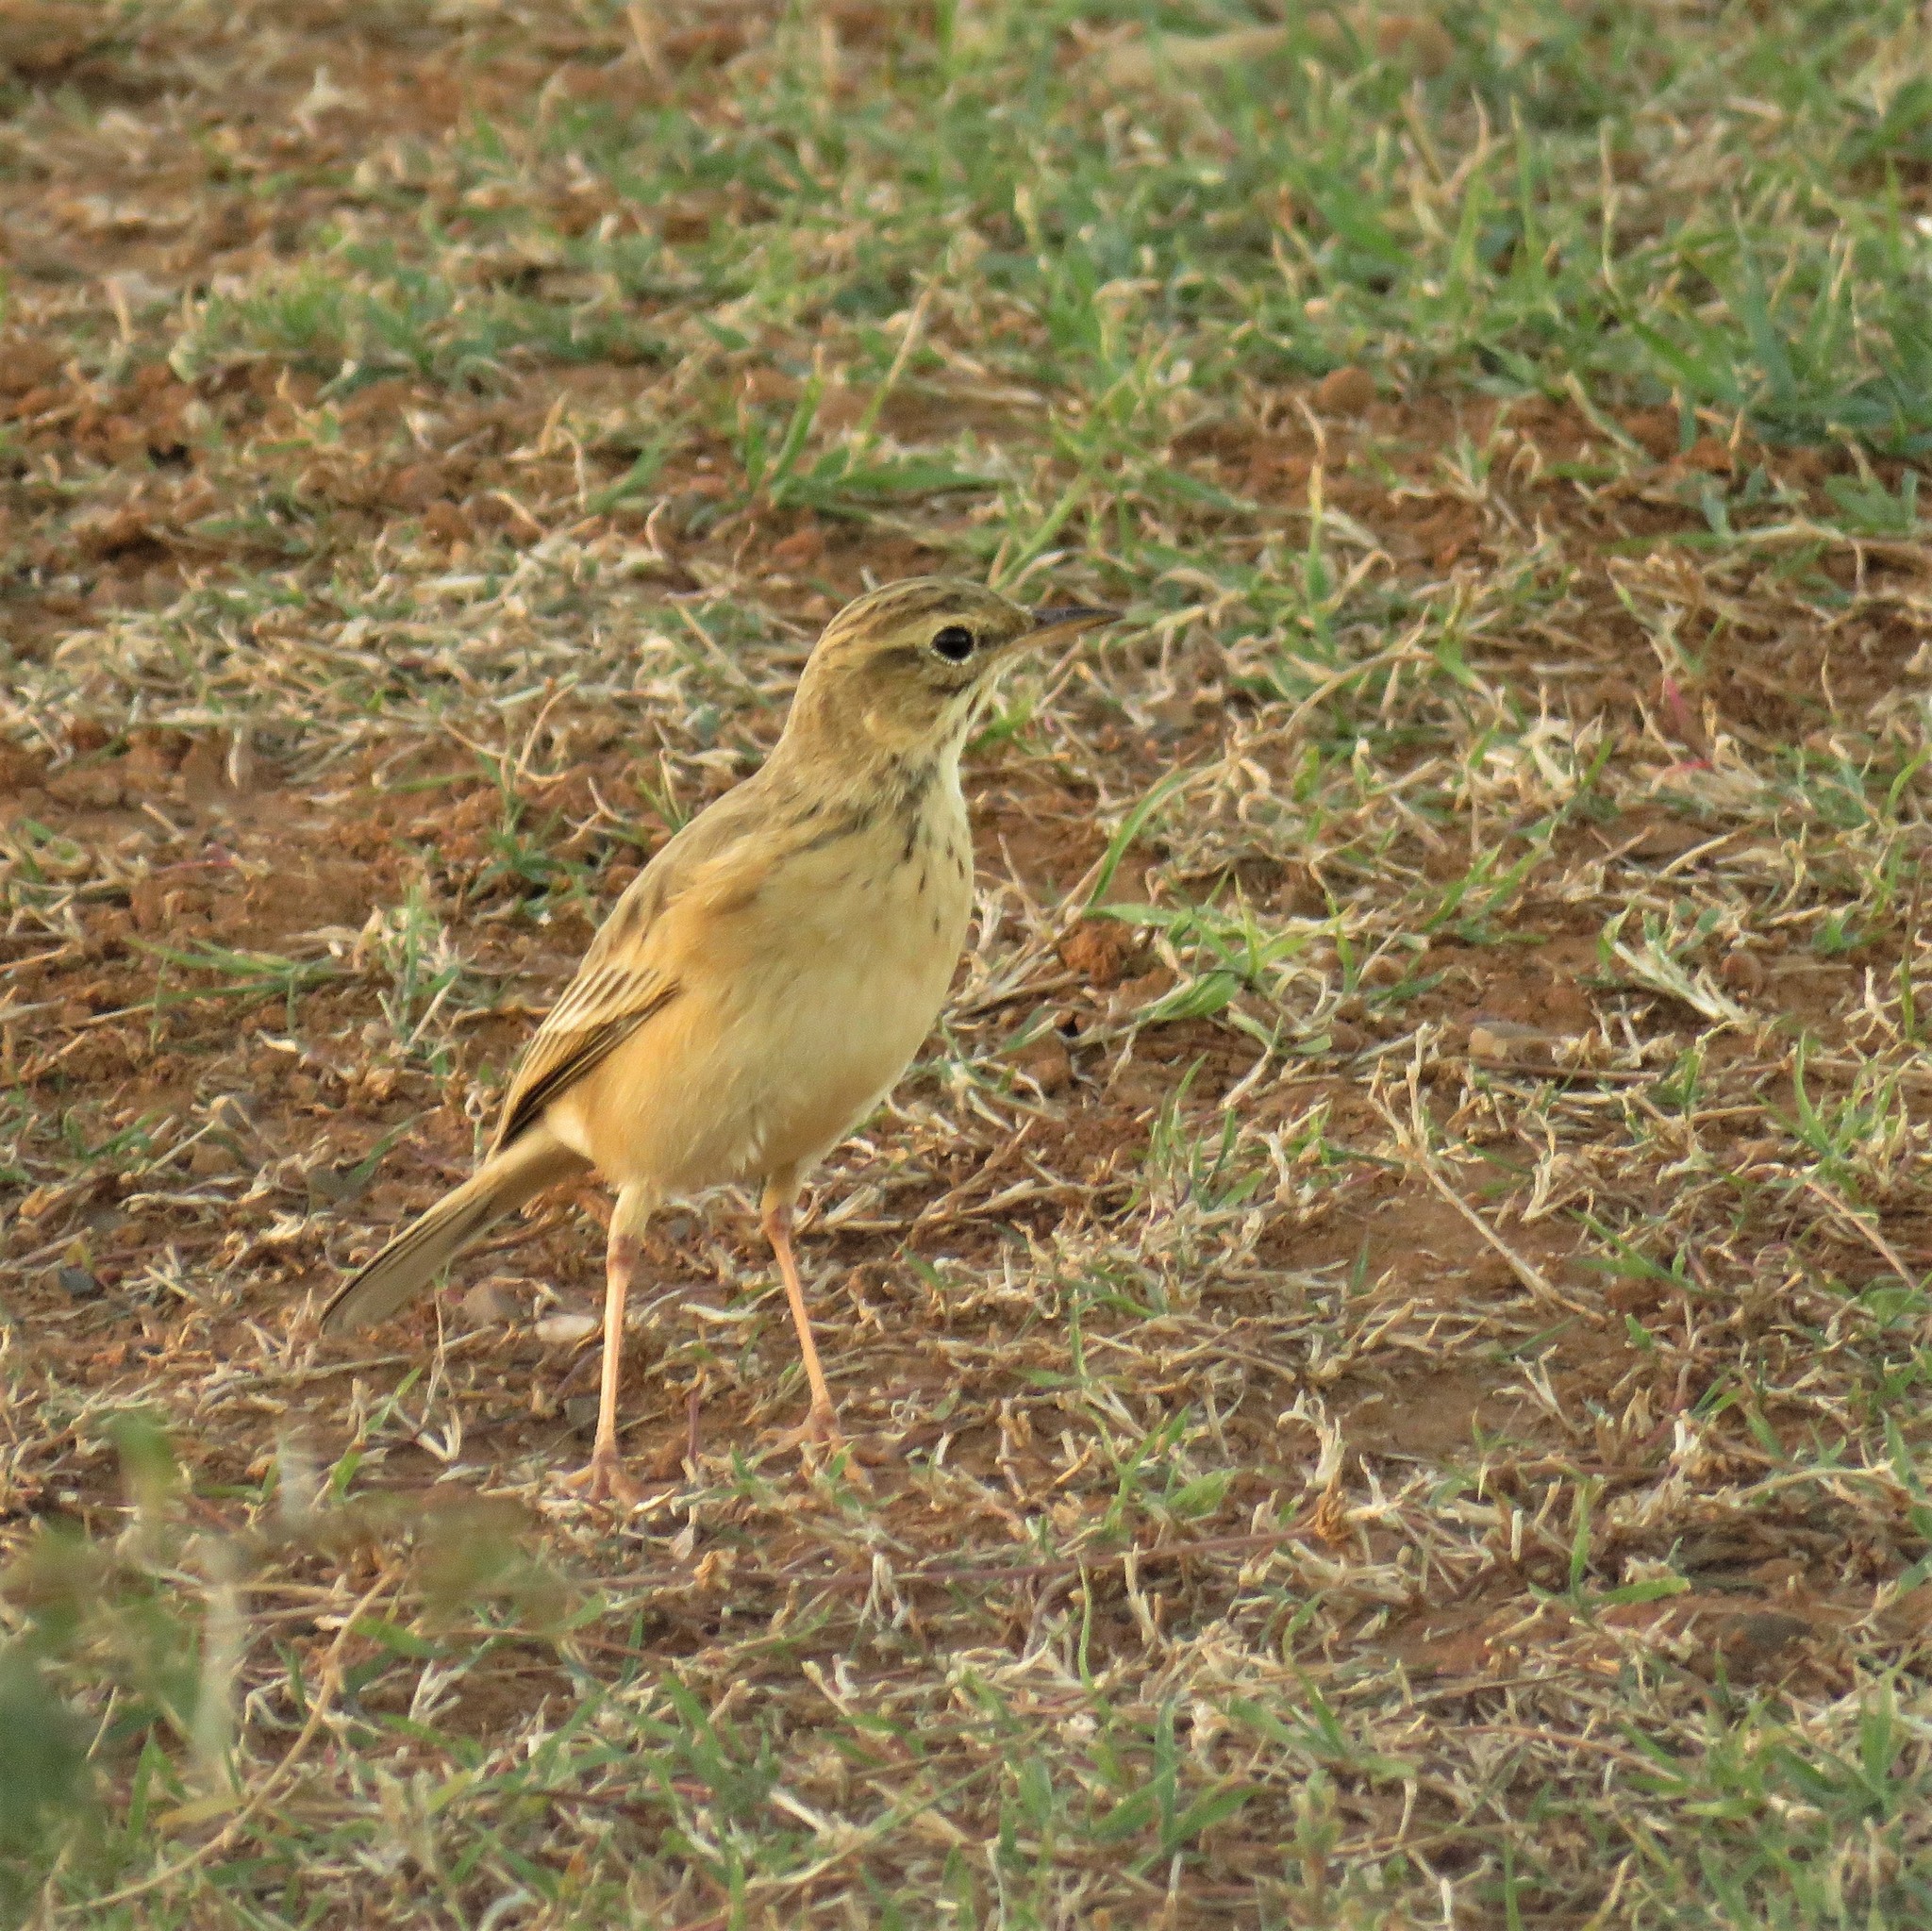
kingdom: Animalia
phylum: Chordata
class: Aves
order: Passeriformes
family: Motacillidae
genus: Anthus
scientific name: Anthus cinnamomeus
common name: African pipit
